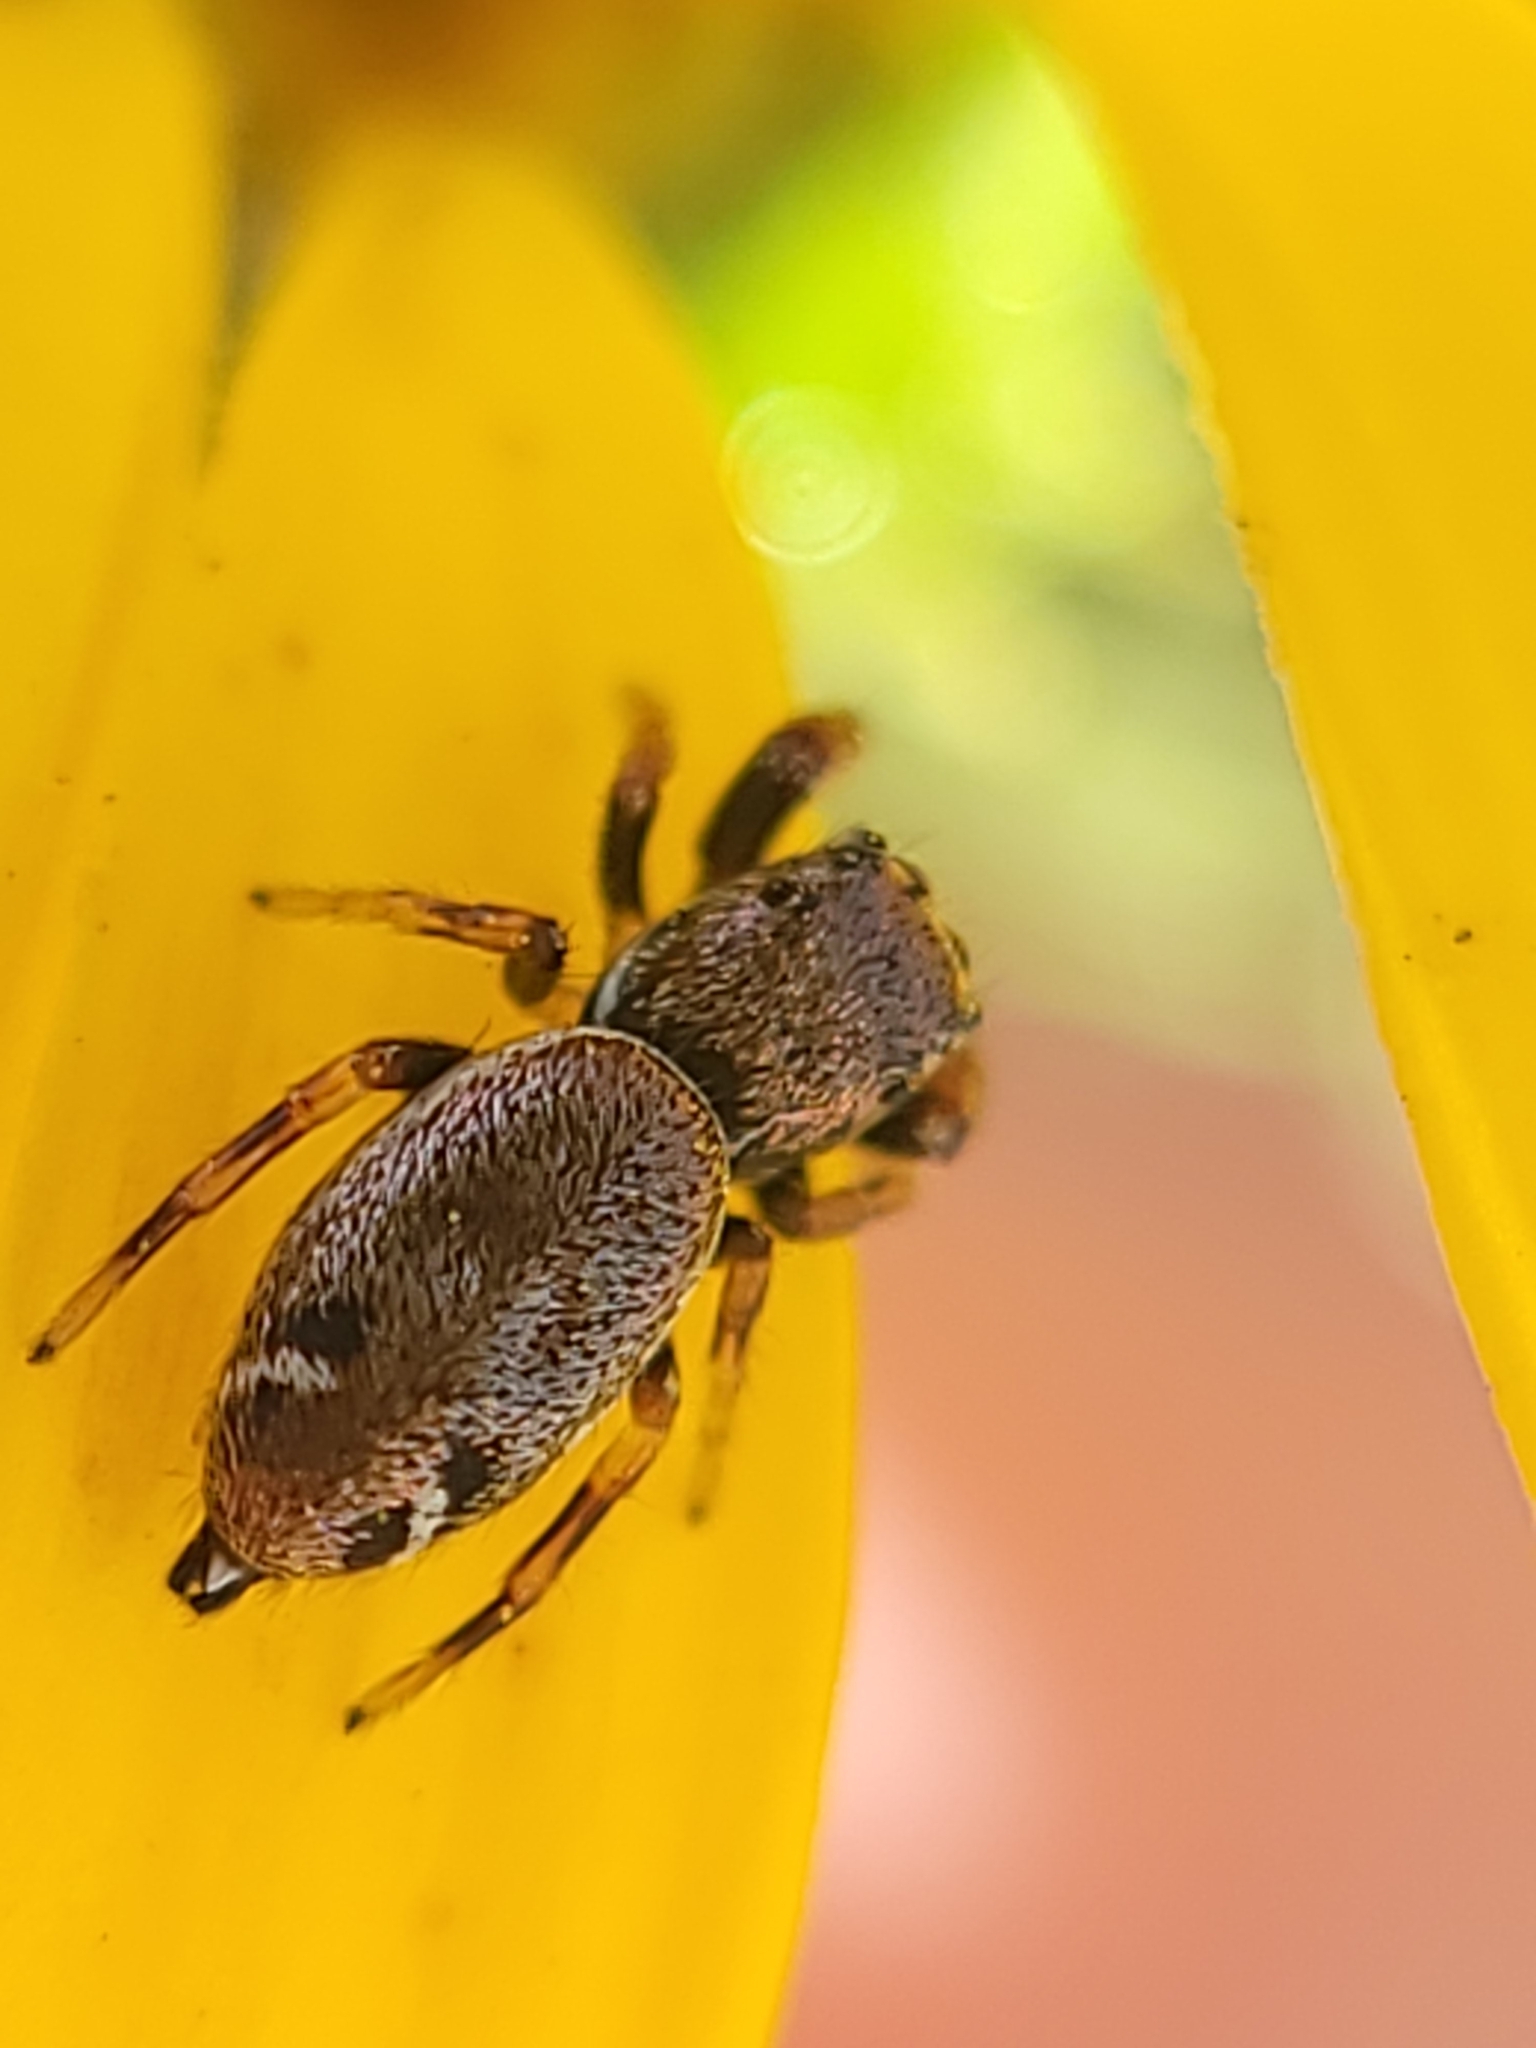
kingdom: Animalia
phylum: Arthropoda
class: Arachnida
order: Araneae
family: Salticidae
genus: Sassacus
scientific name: Sassacus vitis
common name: Jumping spiders
